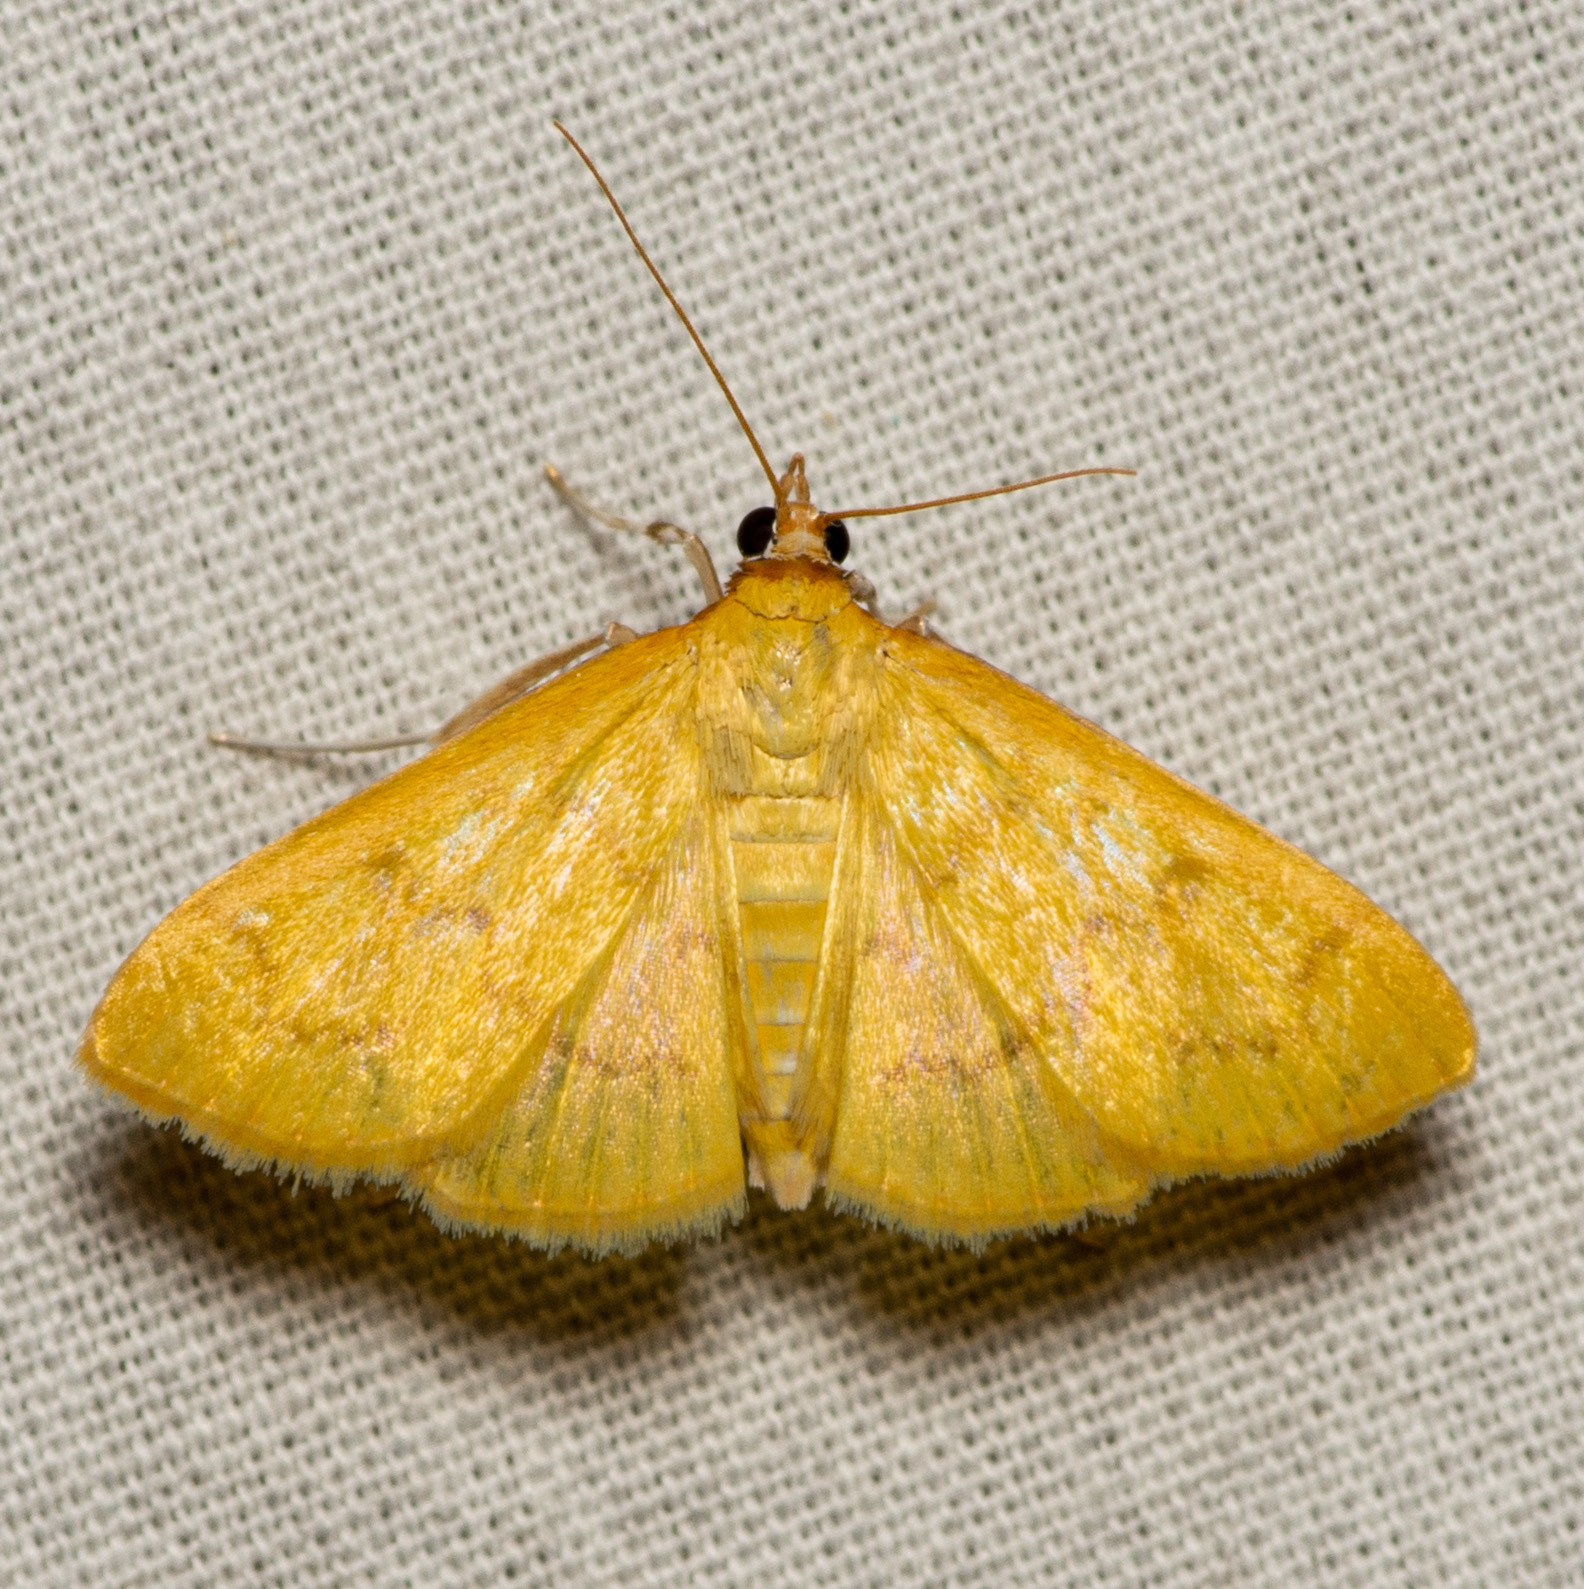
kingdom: Animalia
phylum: Arthropoda
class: Insecta
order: Lepidoptera
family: Crambidae
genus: Loxomorpha
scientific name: Loxomorpha flavidissimalis
